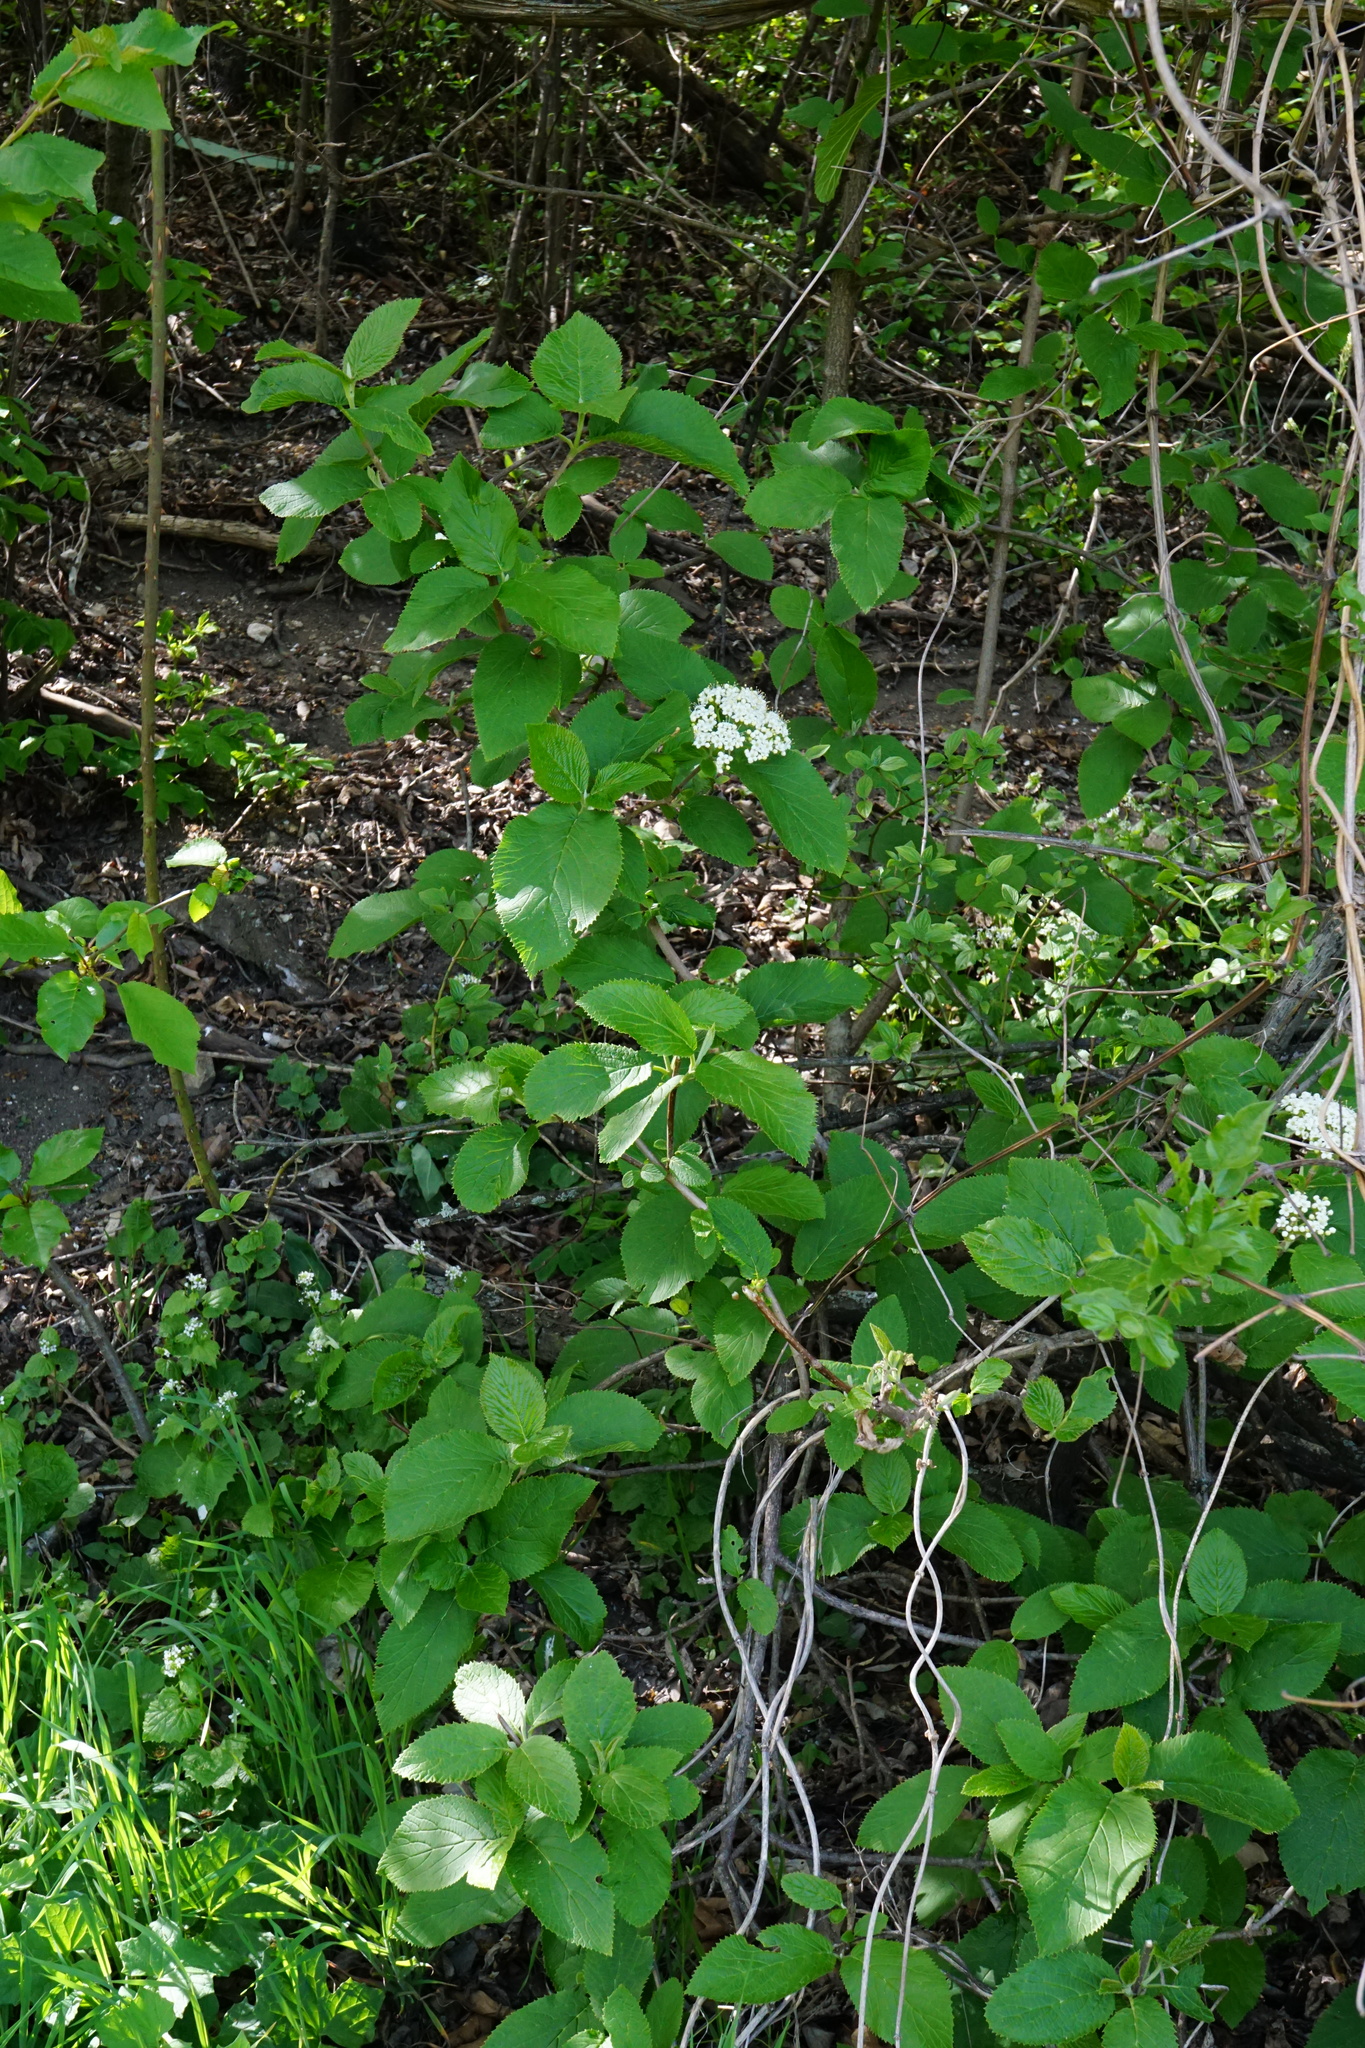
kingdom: Plantae
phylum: Tracheophyta
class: Magnoliopsida
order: Dipsacales
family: Viburnaceae
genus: Viburnum
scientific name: Viburnum lantana
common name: Wayfaring tree
